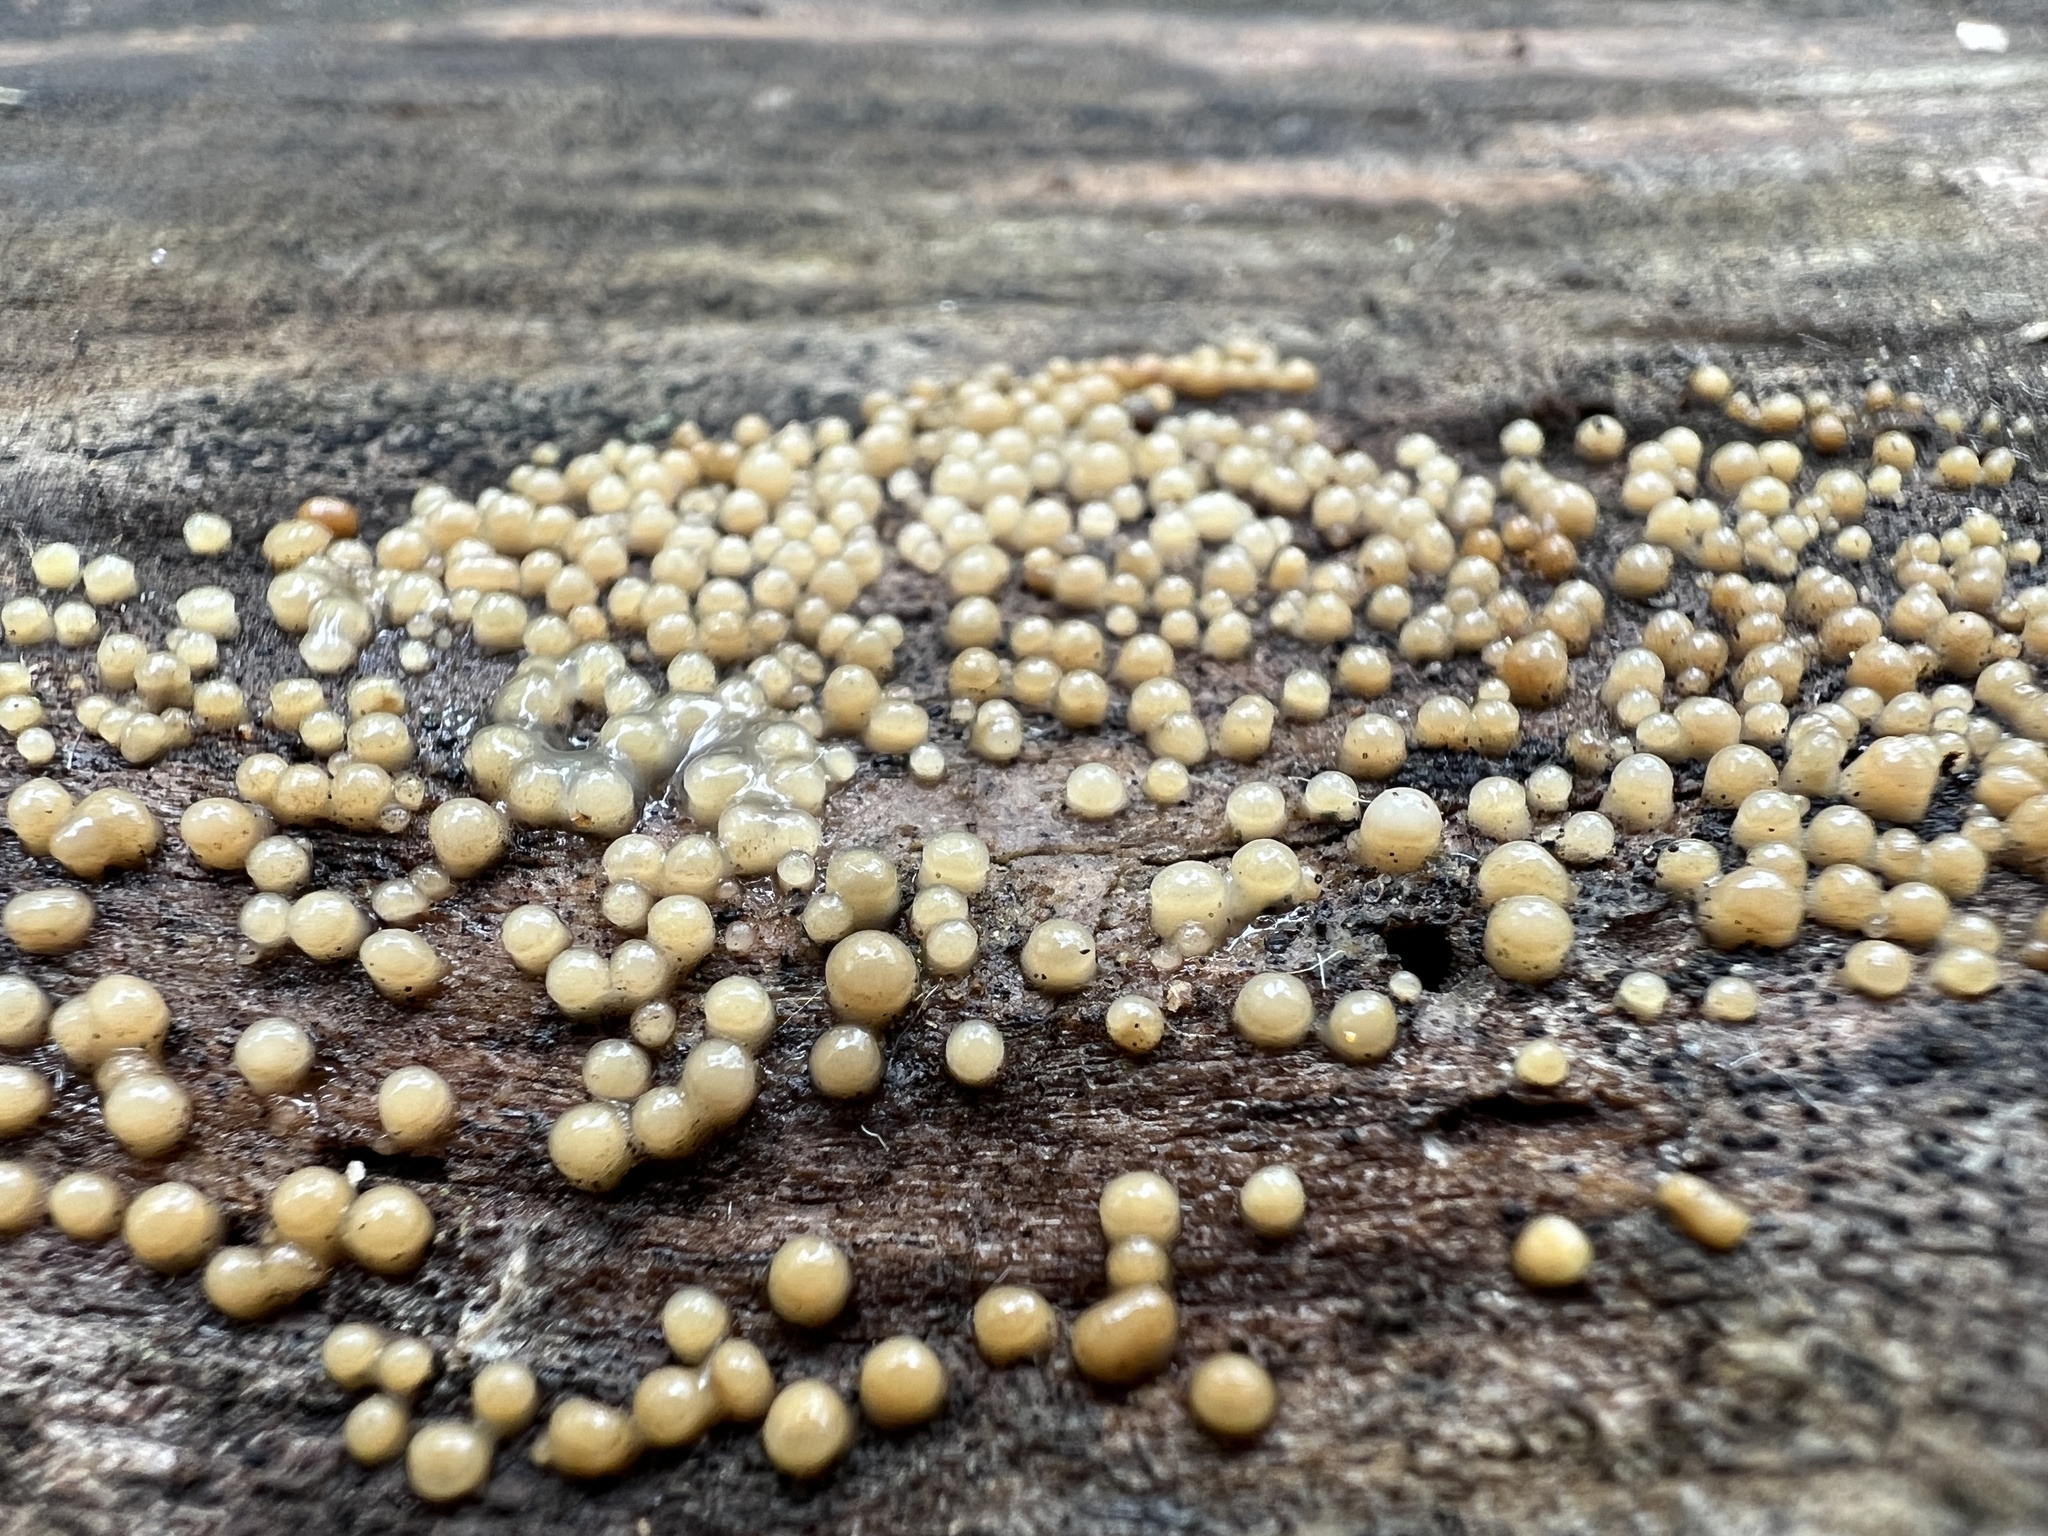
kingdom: Fungi
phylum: Basidiomycota
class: Atractiellomycetes
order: Atractiellales
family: Phleogenaceae
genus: Helicogloea
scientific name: Helicogloea compressa
